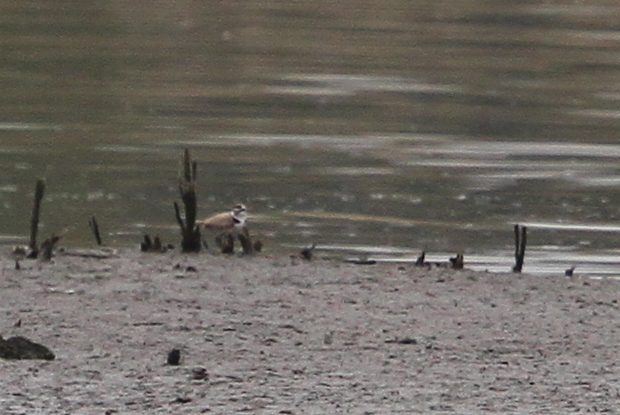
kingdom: Animalia
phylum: Chordata
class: Aves
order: Charadriiformes
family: Charadriidae
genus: Charadrius
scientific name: Charadrius alexandrinus
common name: Kentish plover
